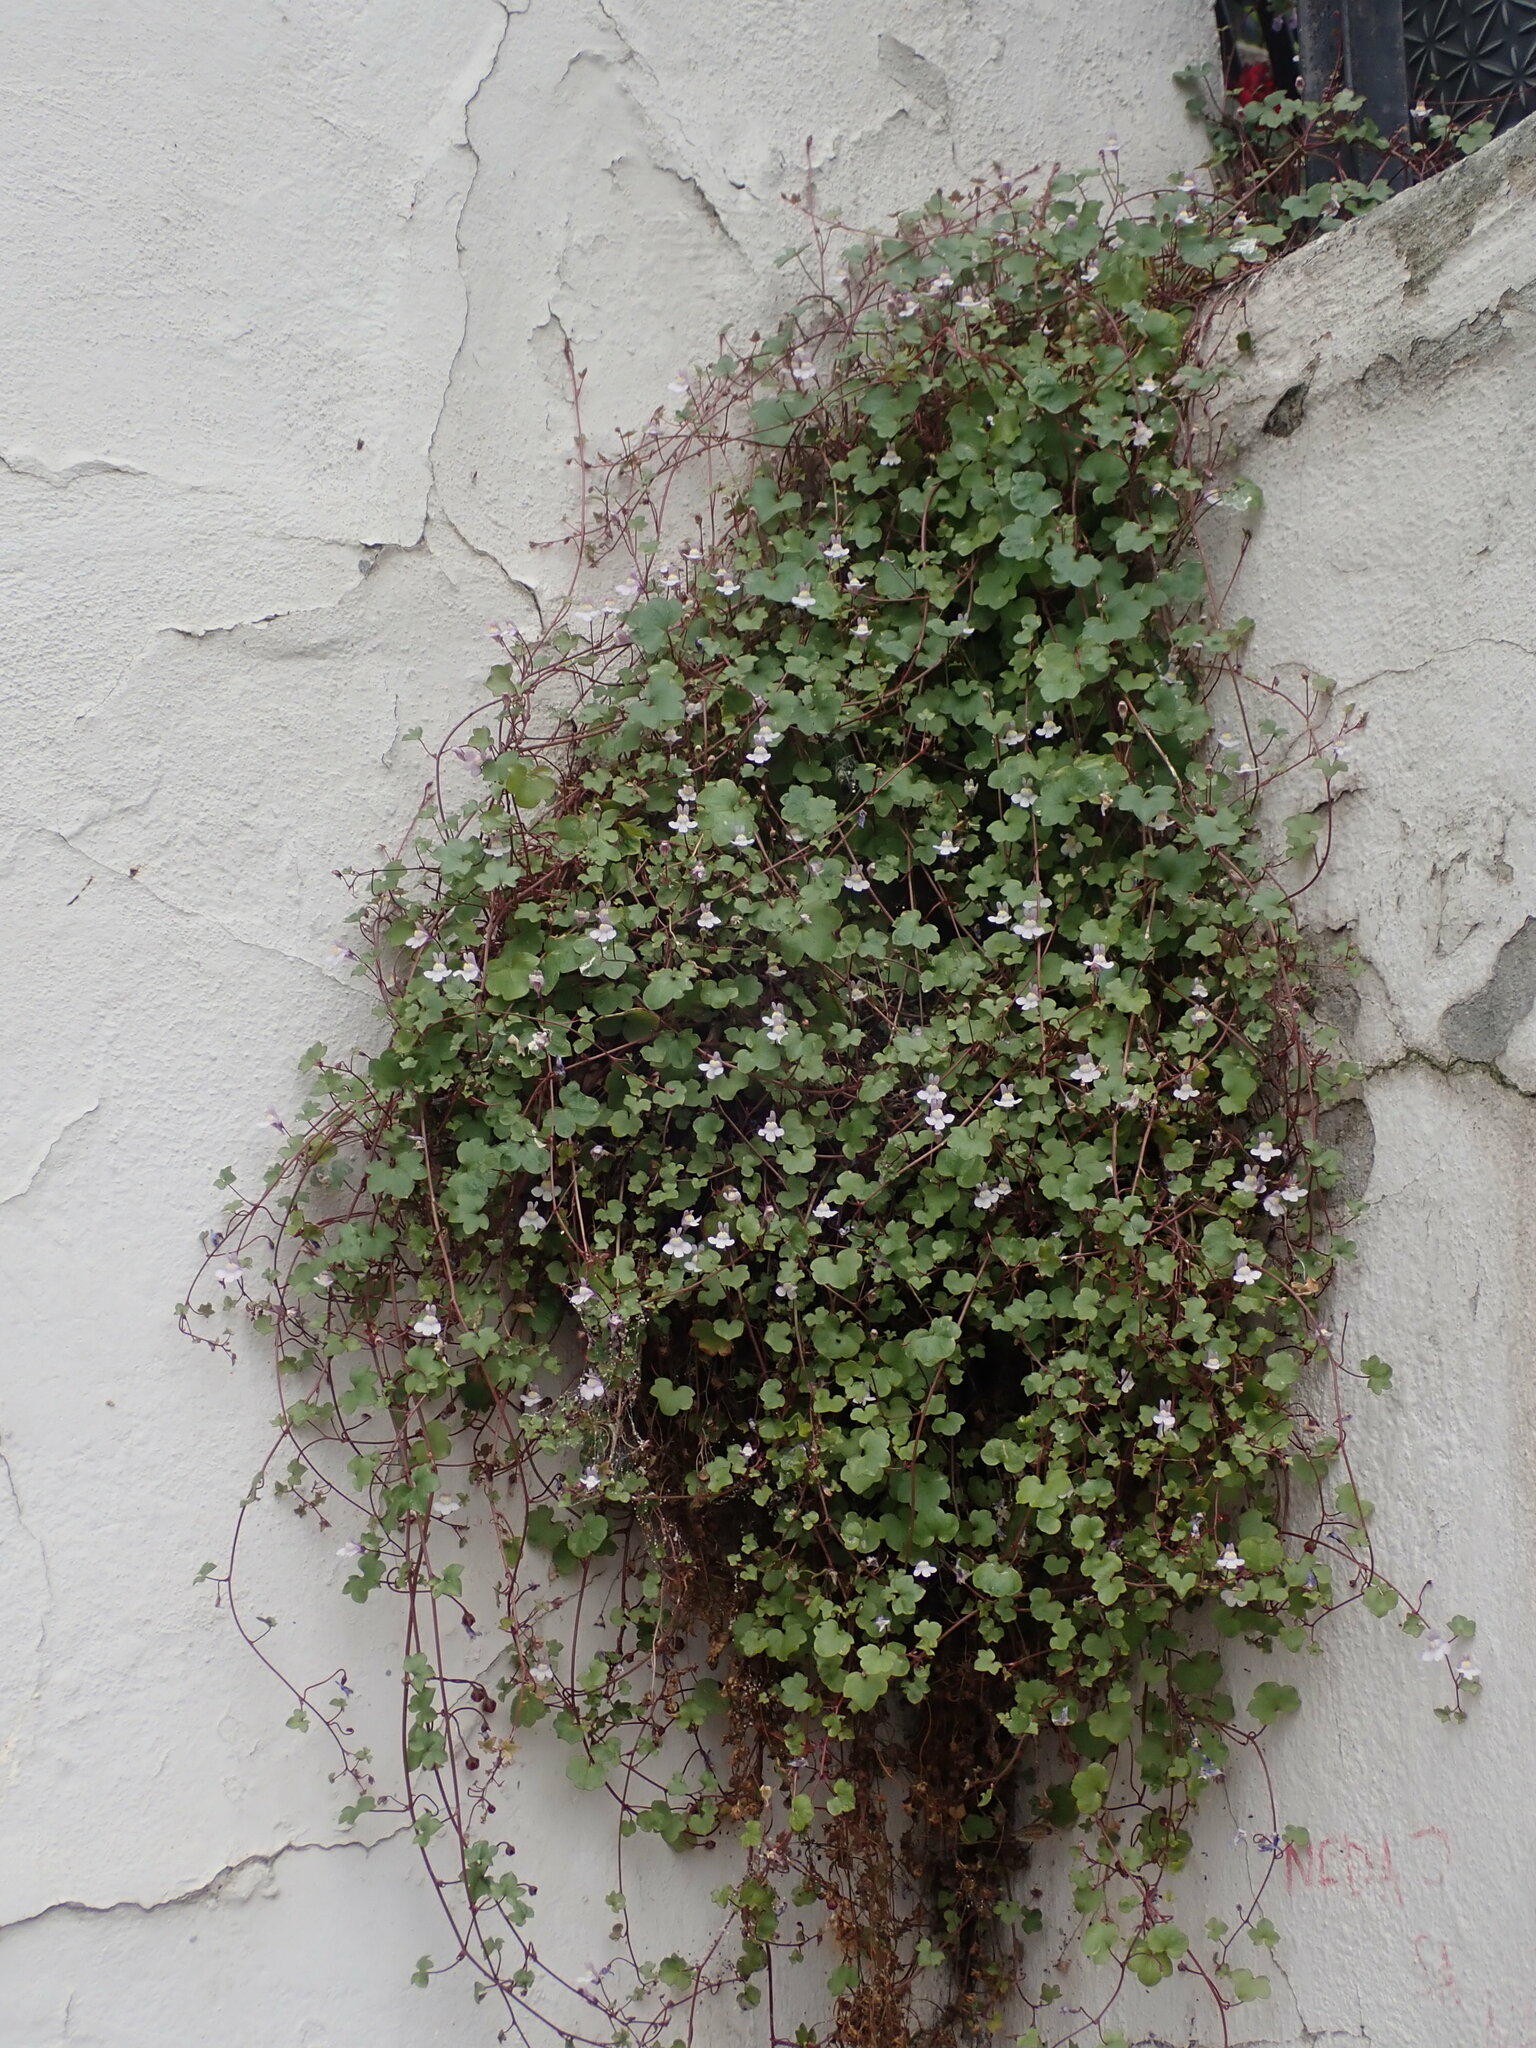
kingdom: Plantae
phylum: Tracheophyta
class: Magnoliopsida
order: Lamiales
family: Plantaginaceae
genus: Cymbalaria
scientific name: Cymbalaria muralis
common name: Ivy-leaved toadflax
